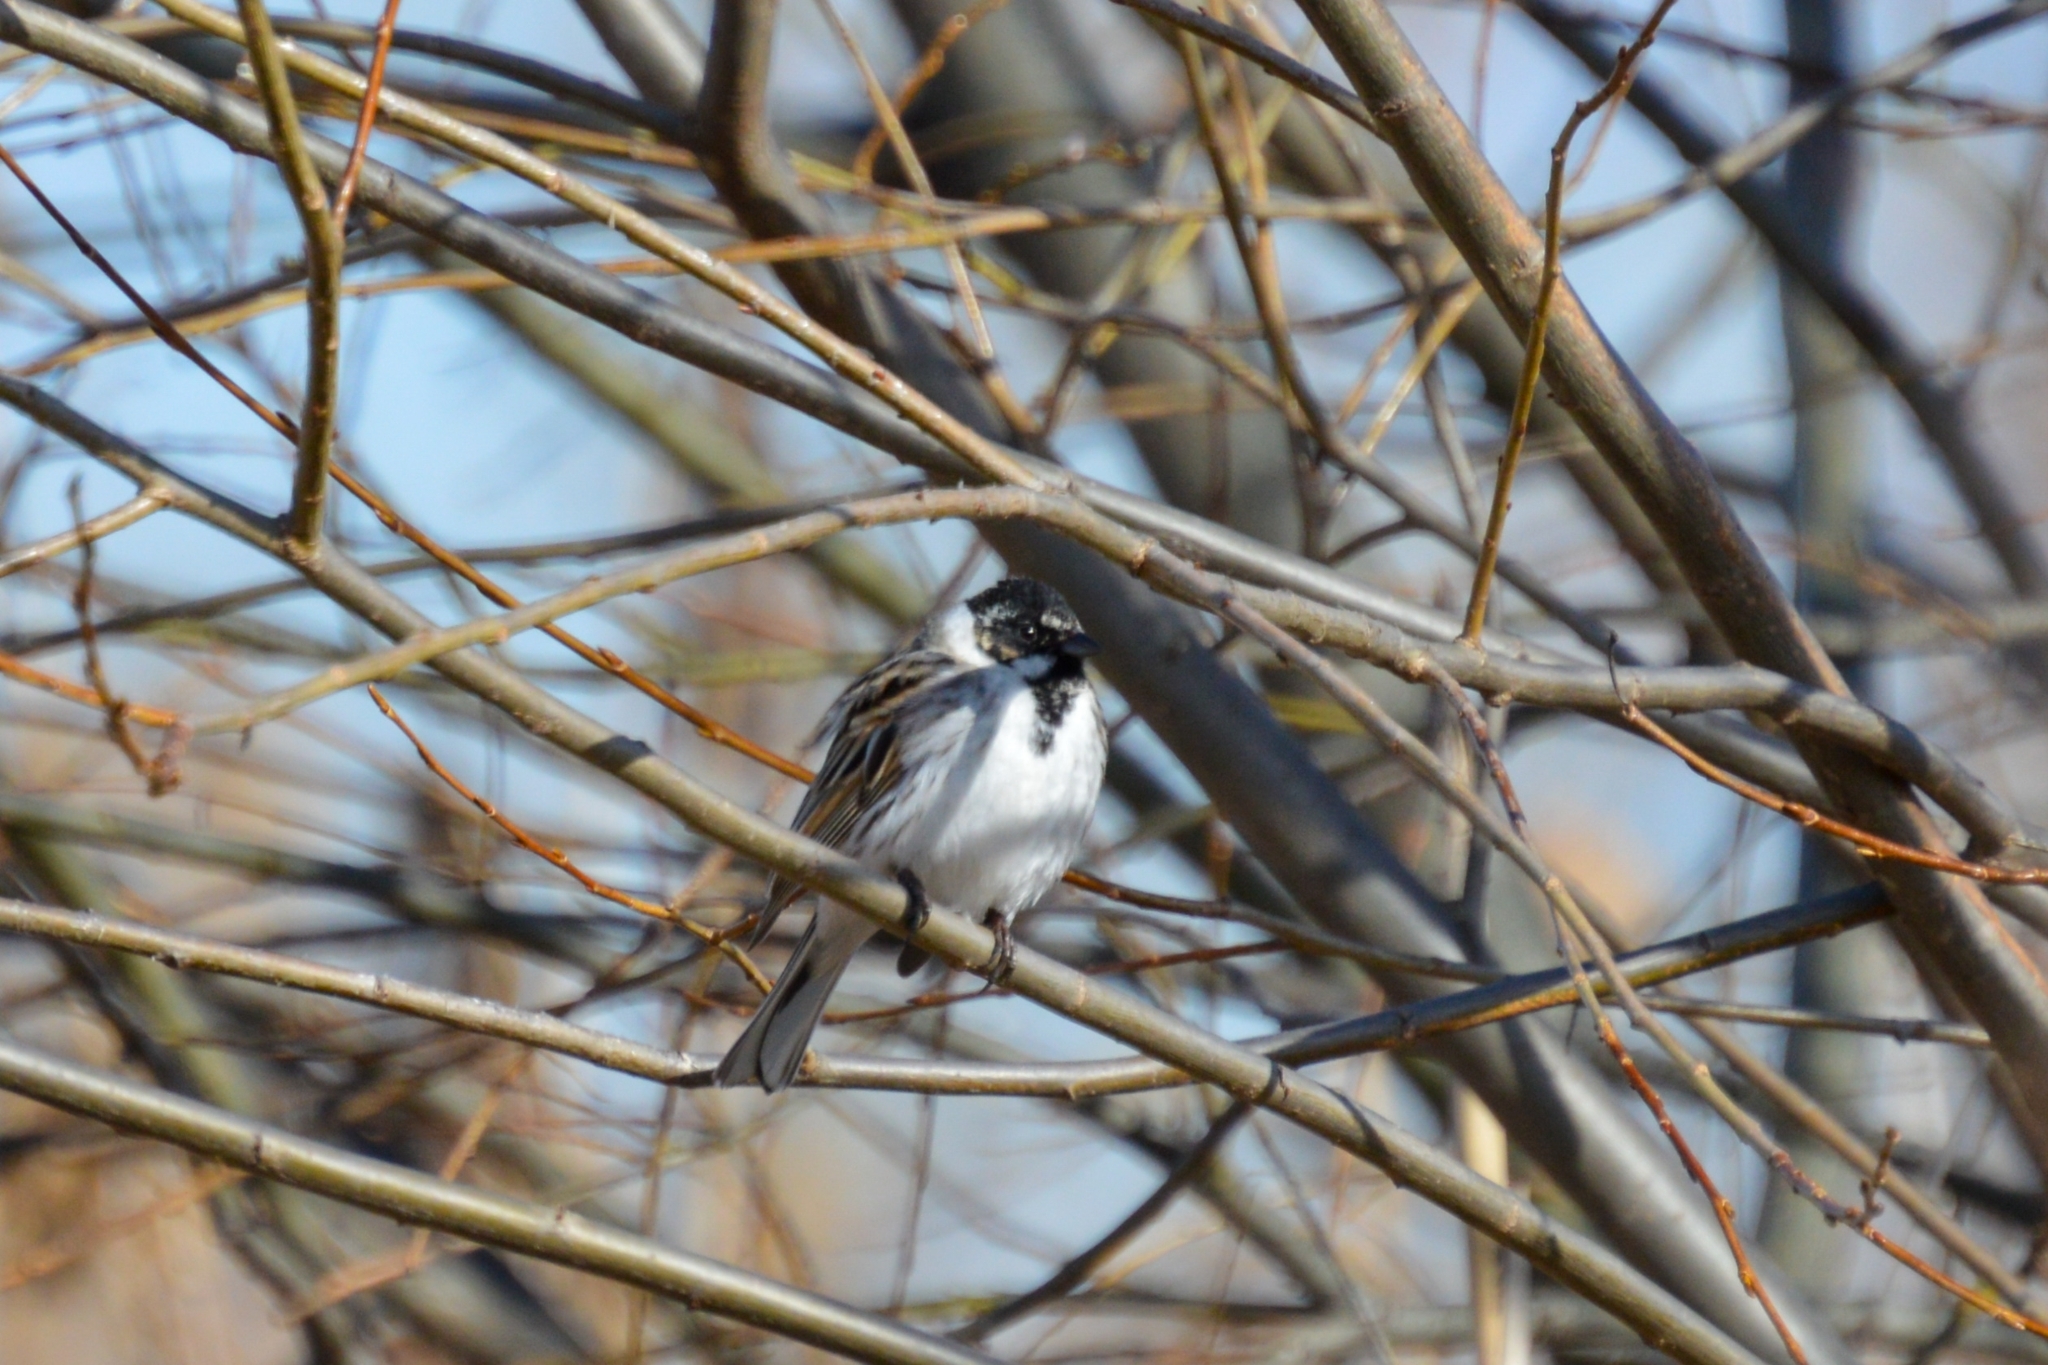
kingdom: Animalia
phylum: Chordata
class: Aves
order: Passeriformes
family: Emberizidae
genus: Emberiza
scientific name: Emberiza schoeniclus
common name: Reed bunting
